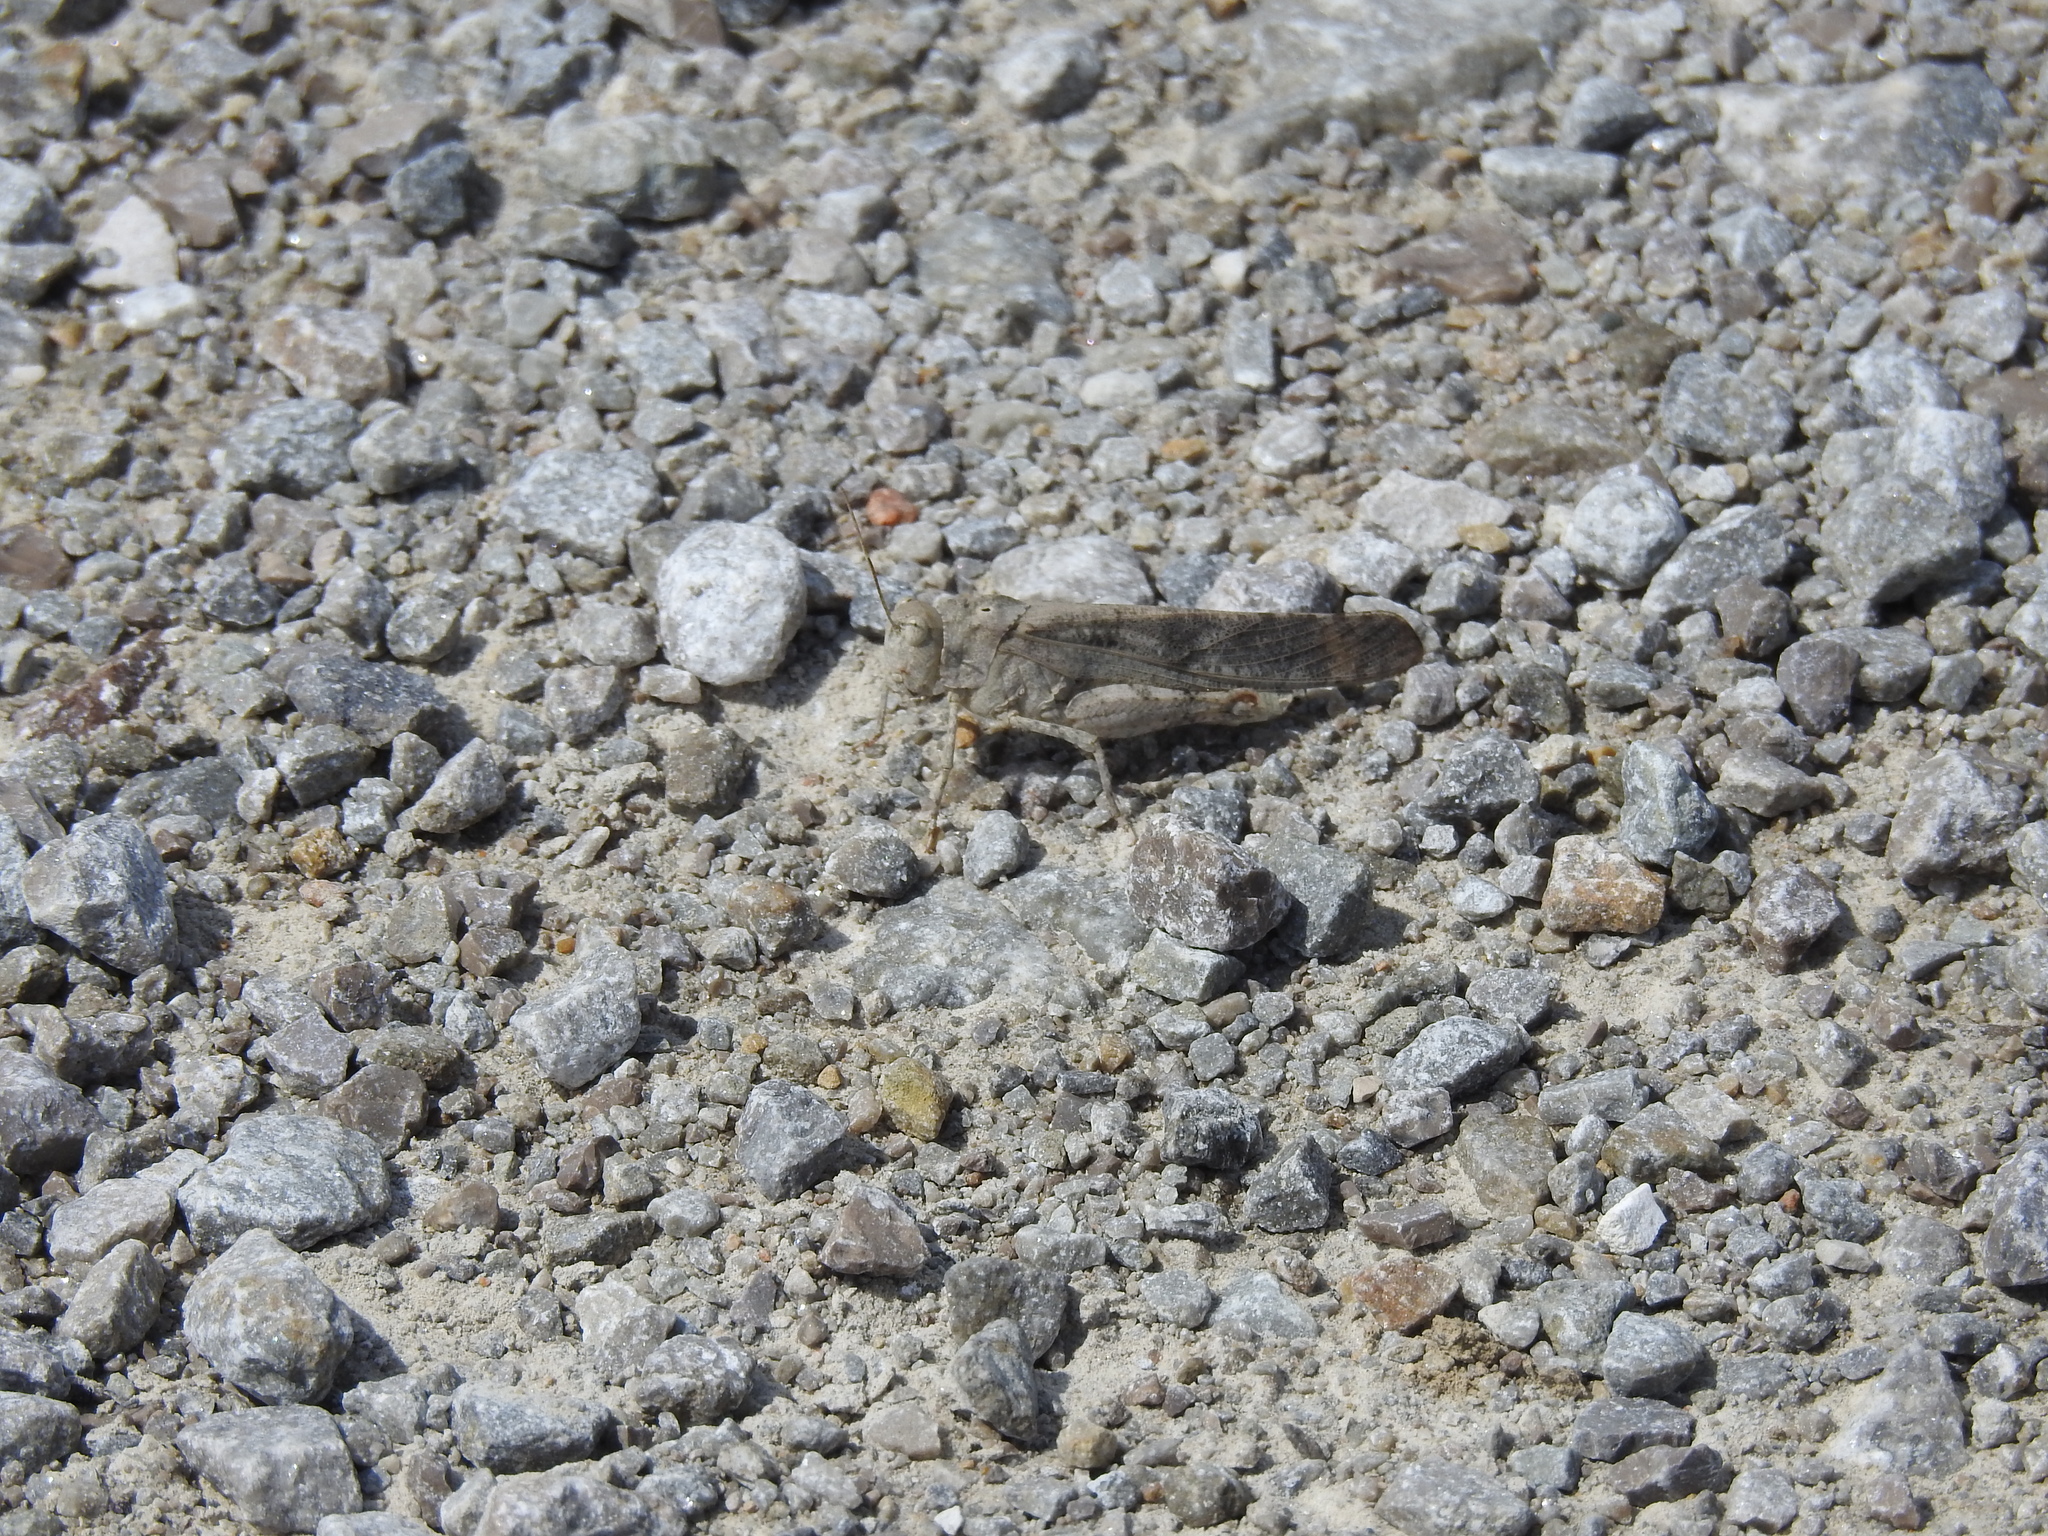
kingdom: Animalia
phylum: Arthropoda
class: Insecta
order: Orthoptera
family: Acrididae
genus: Dissosteira
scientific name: Dissosteira carolina
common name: Carolina grasshopper
